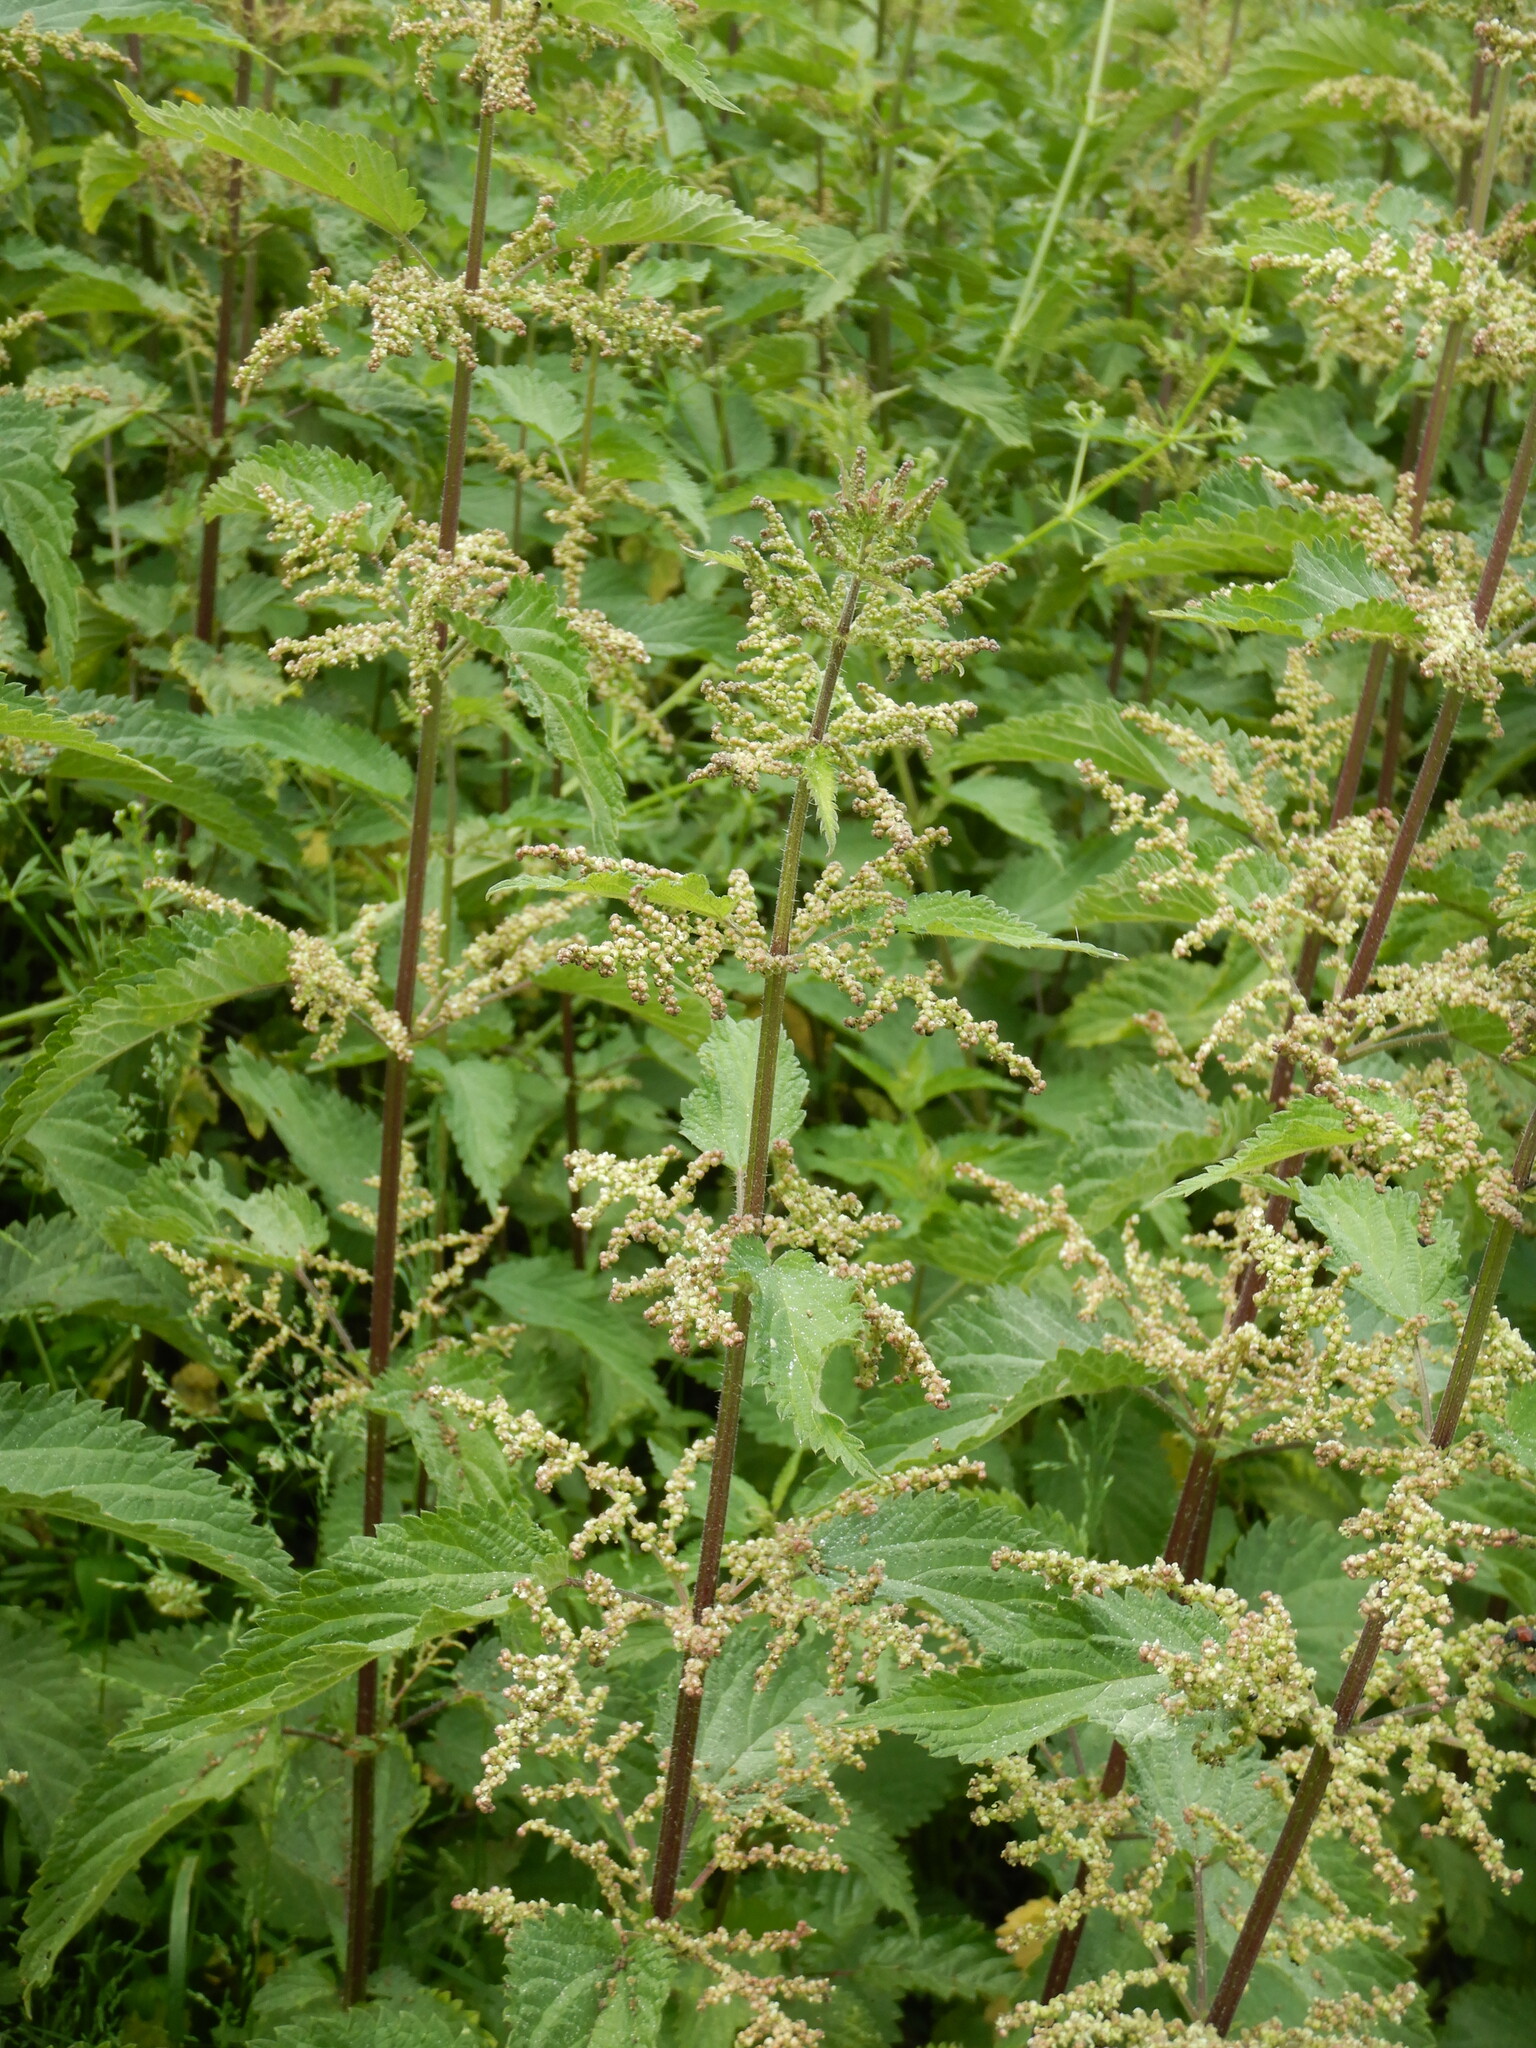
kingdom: Plantae
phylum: Tracheophyta
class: Magnoliopsida
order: Rosales
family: Urticaceae
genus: Urtica
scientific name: Urtica dioica
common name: Common nettle
